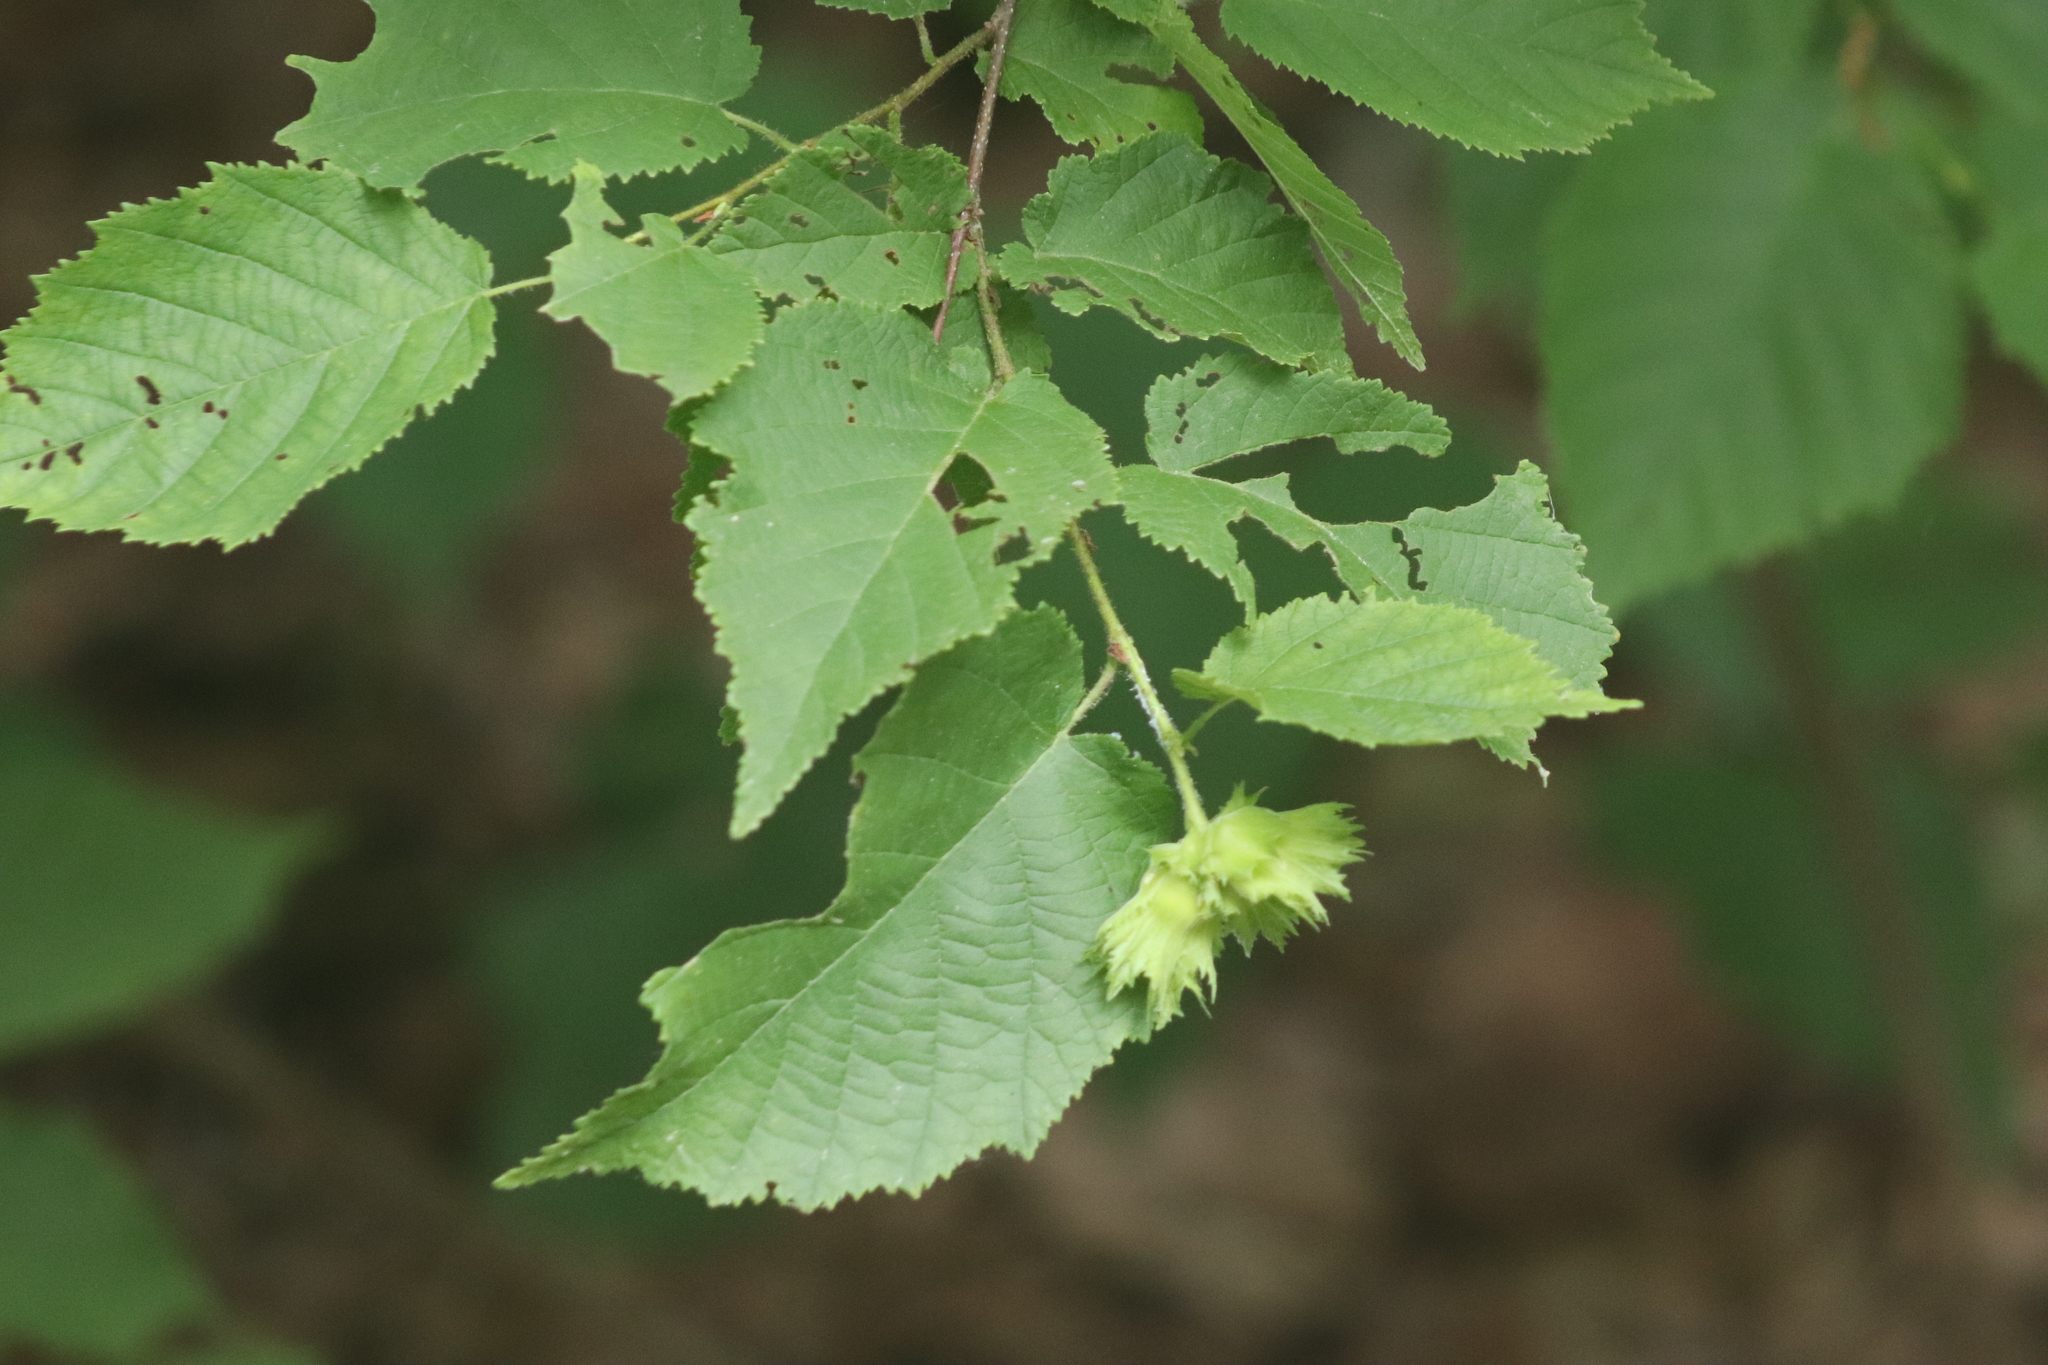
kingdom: Plantae
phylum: Tracheophyta
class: Magnoliopsida
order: Fagales
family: Betulaceae
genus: Corylus
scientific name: Corylus americana
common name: American hazel
